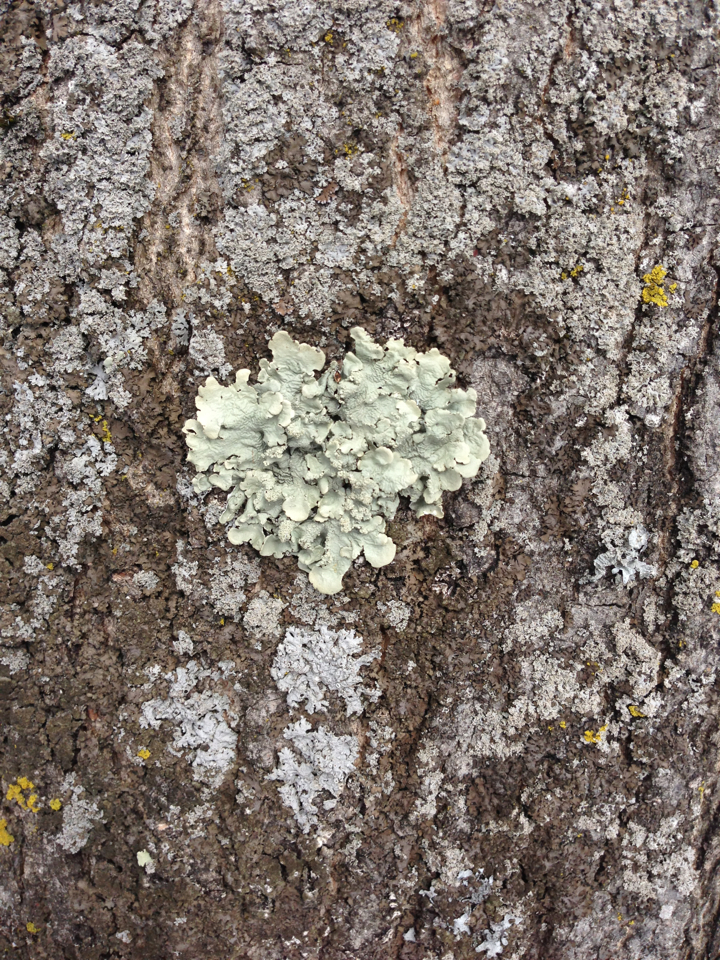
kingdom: Fungi
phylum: Ascomycota
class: Lecanoromycetes
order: Lecanorales
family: Parmeliaceae
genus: Flavoparmelia
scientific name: Flavoparmelia caperata
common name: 40-mile per hour lichen
